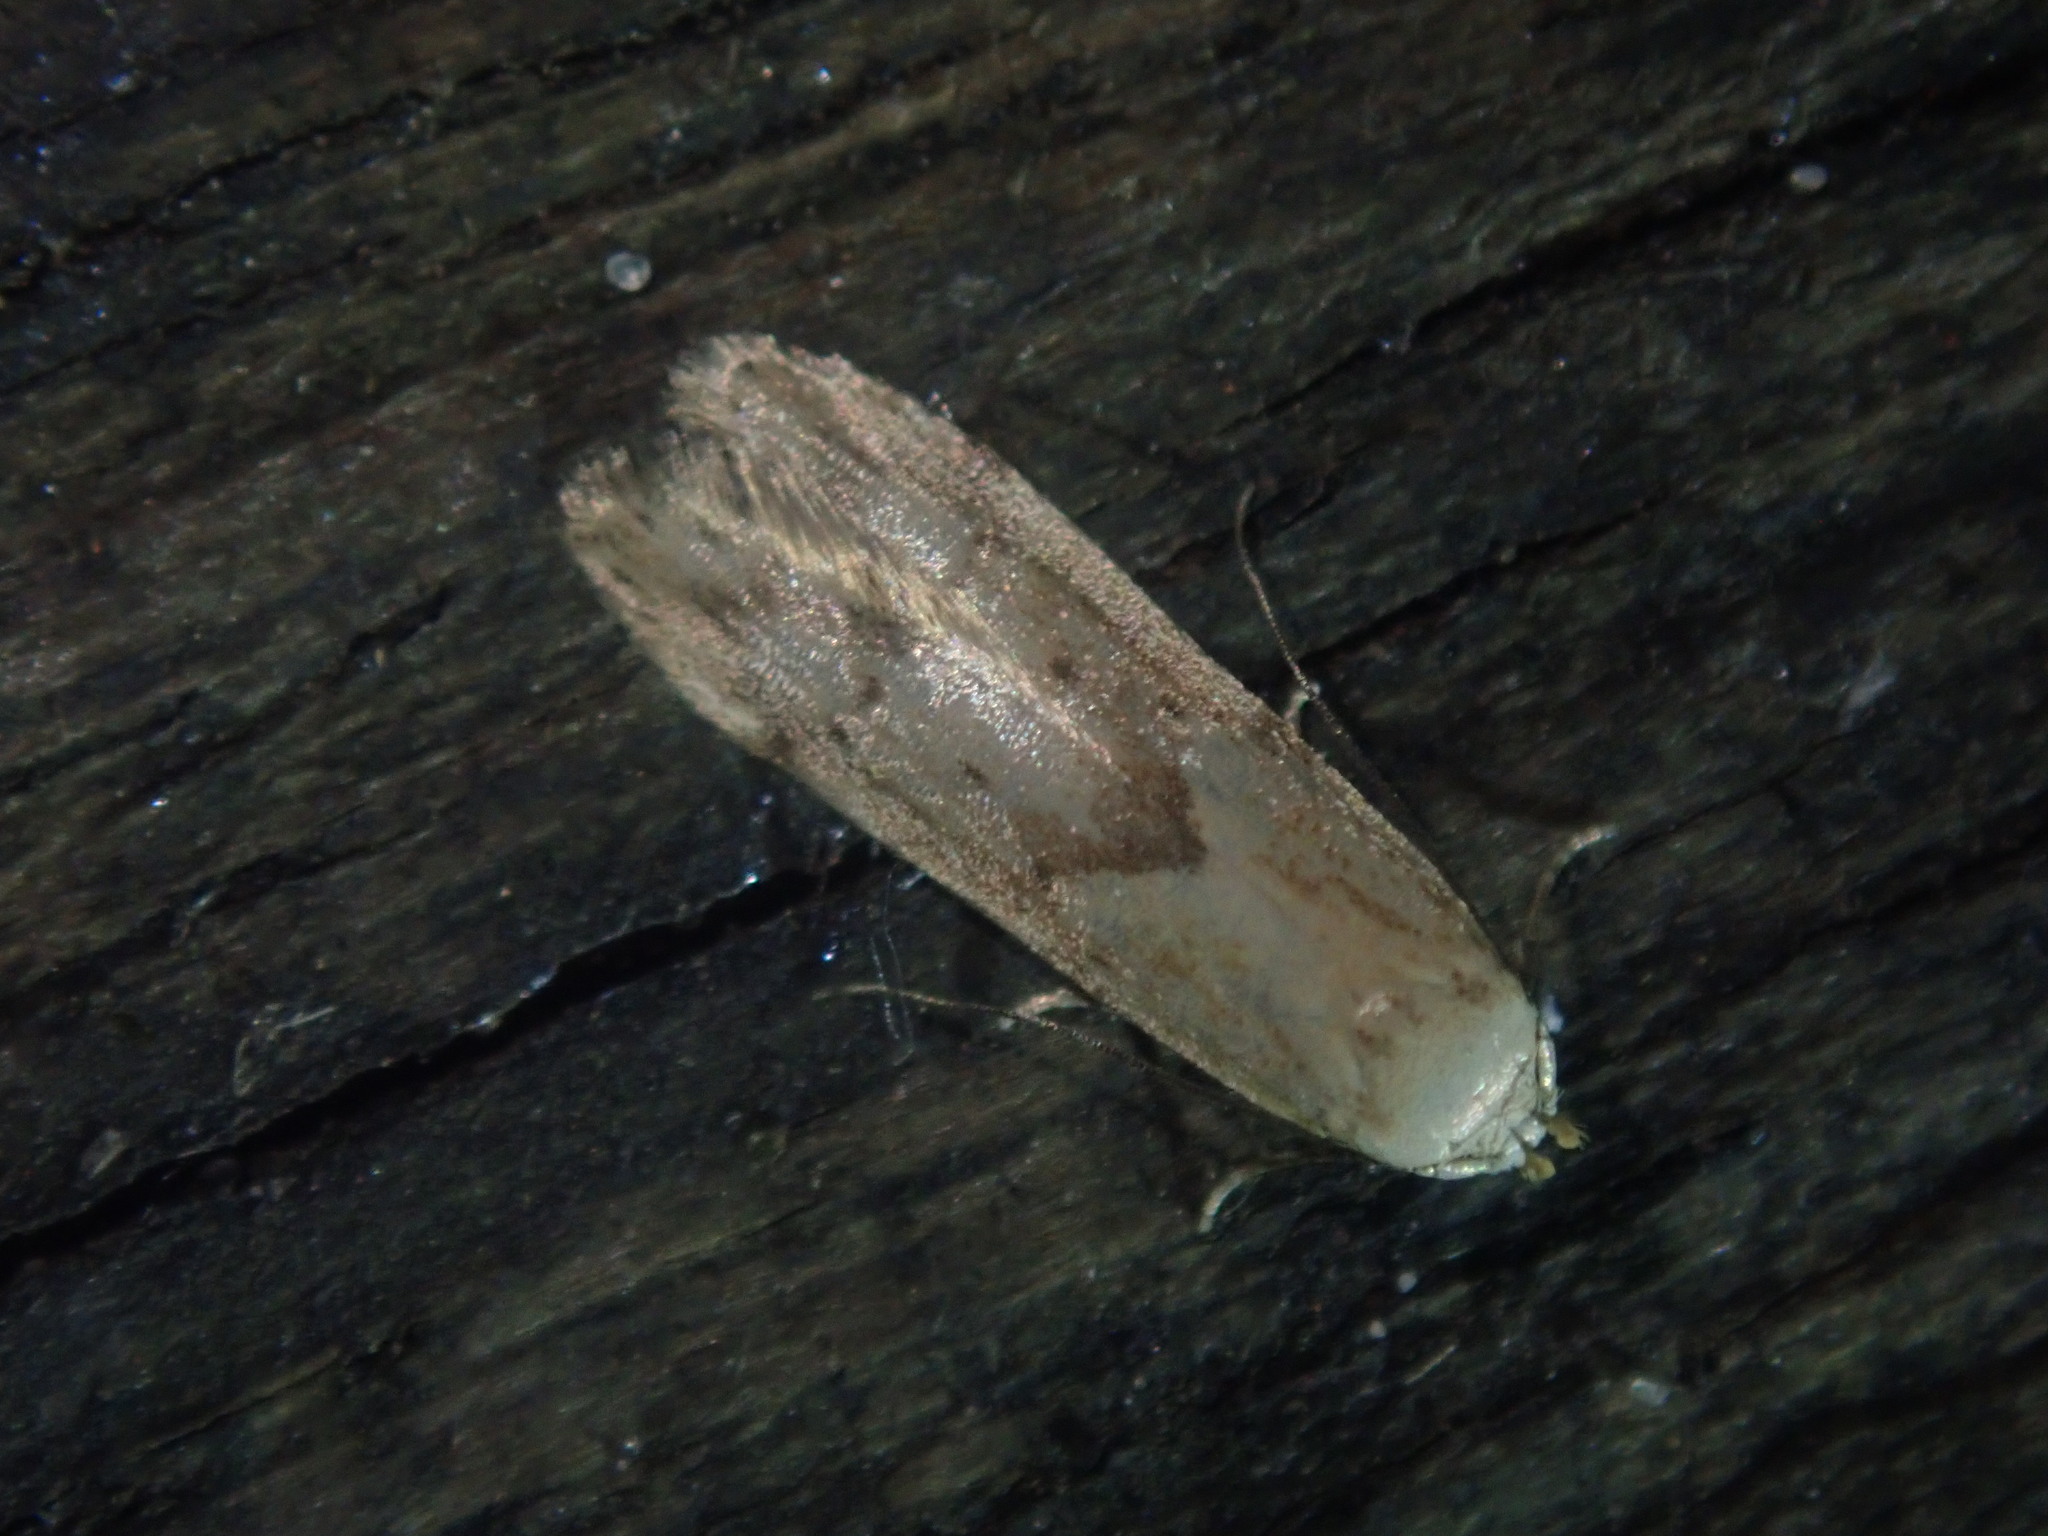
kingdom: Animalia
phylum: Arthropoda
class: Insecta
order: Lepidoptera
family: Blastobasidae
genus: Blastobasis
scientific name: Blastobasis lacticolella
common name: London dowd
